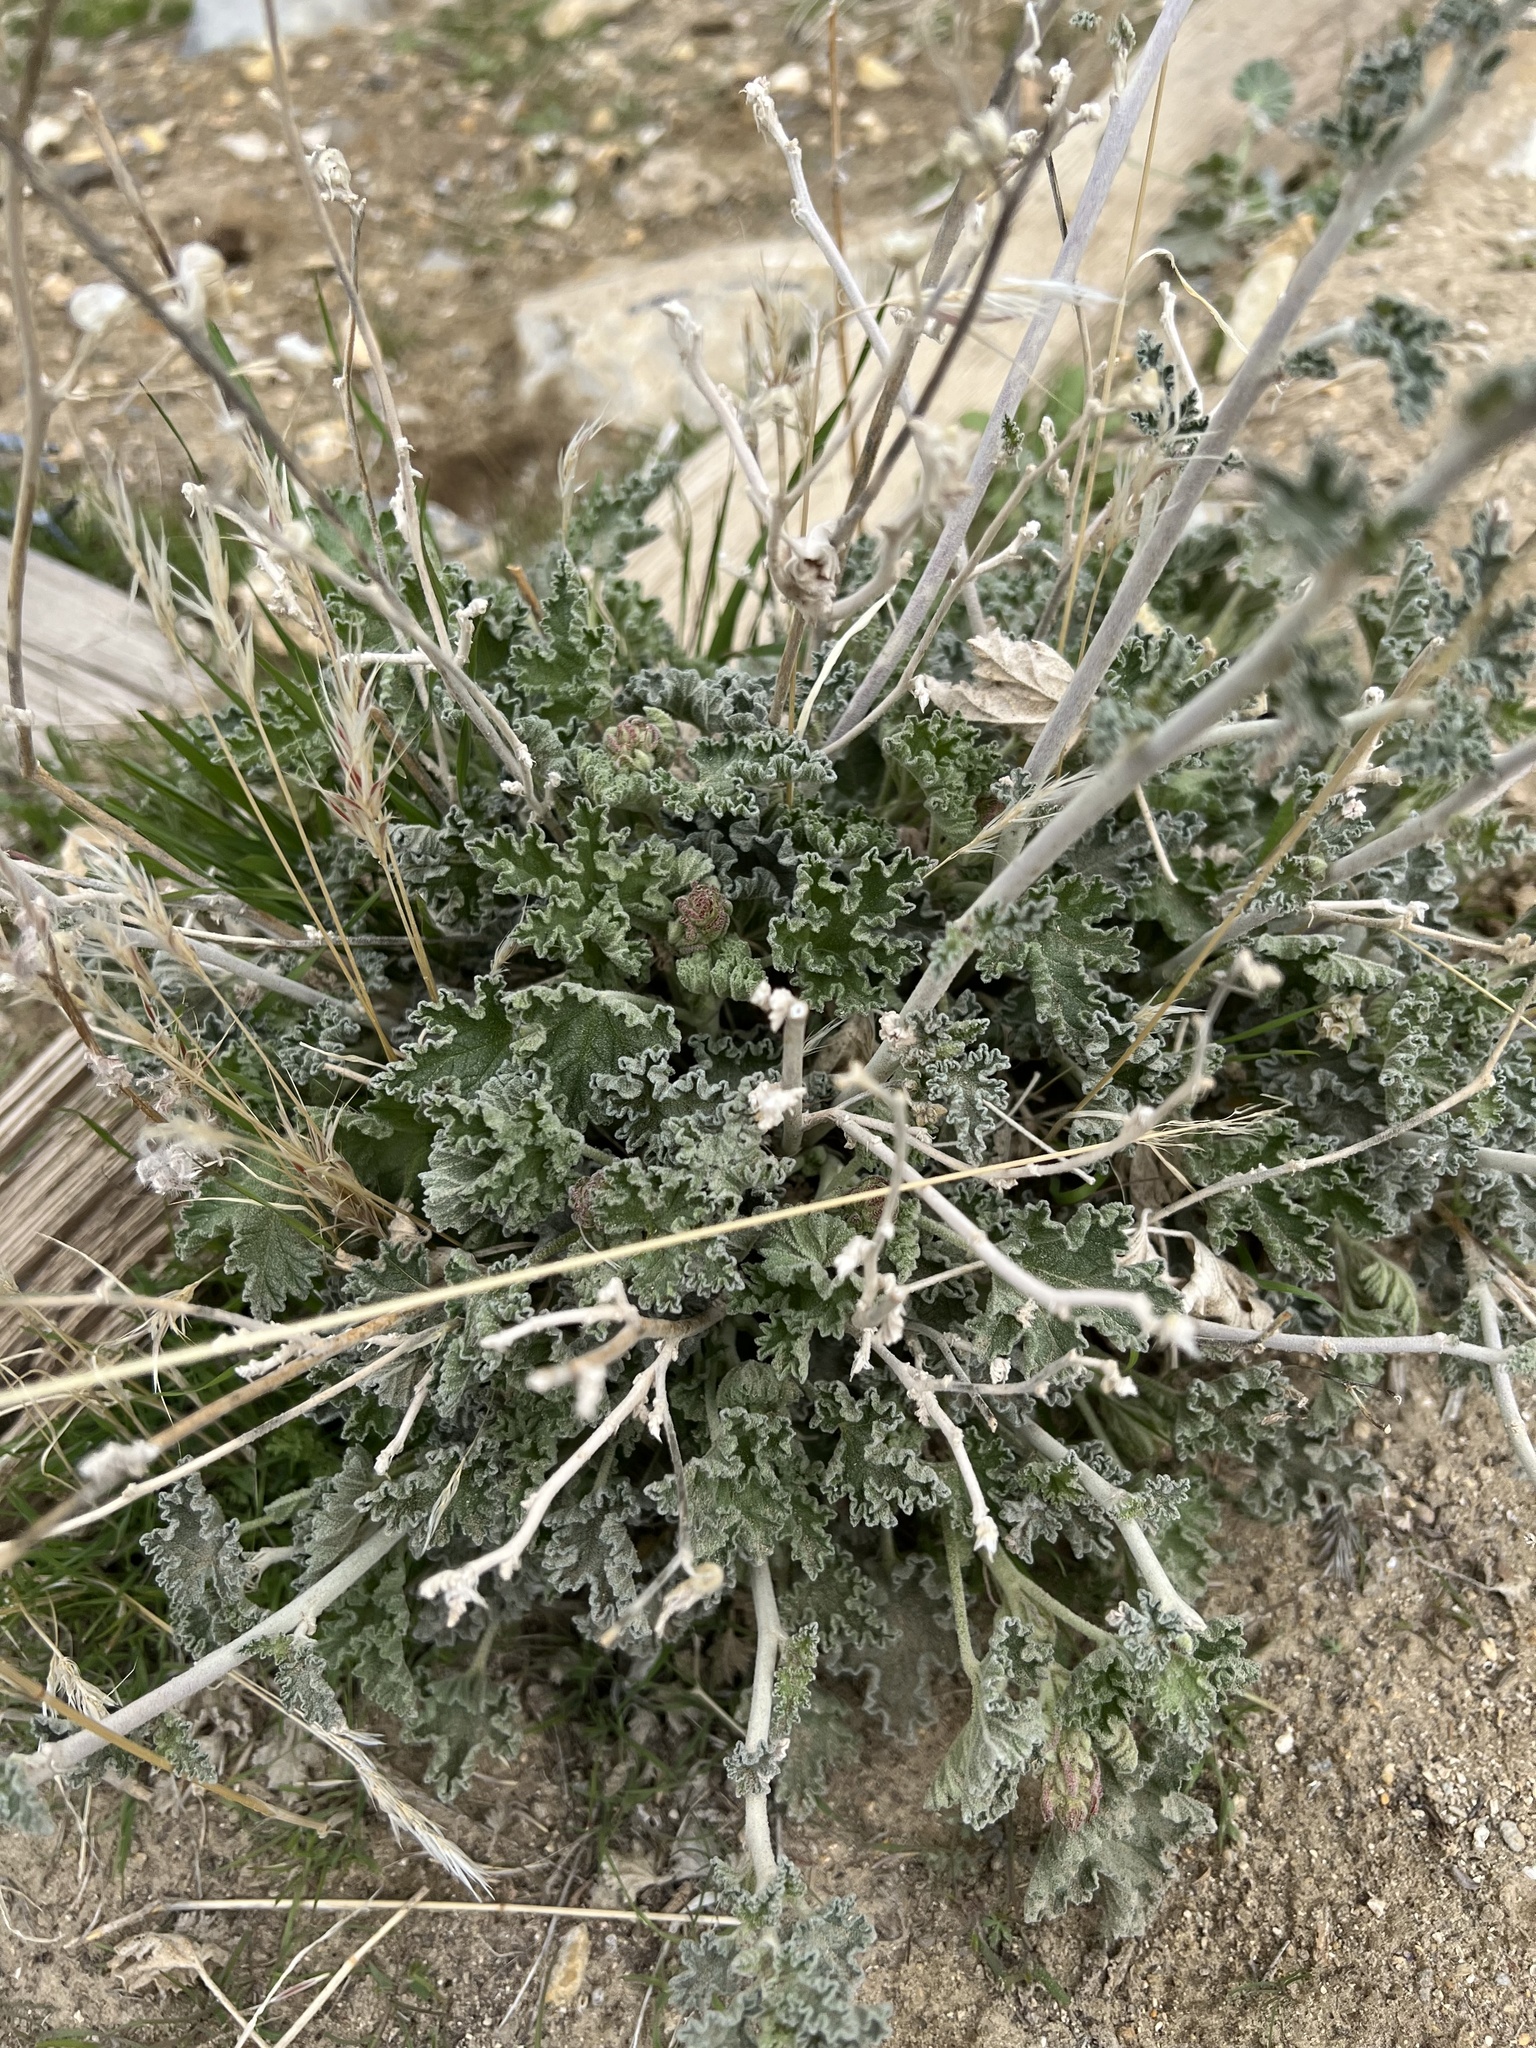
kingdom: Plantae
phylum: Tracheophyta
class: Magnoliopsida
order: Malvales
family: Malvaceae
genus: Sphaeralcea
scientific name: Sphaeralcea ambigua
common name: Apricot globe-mallow
